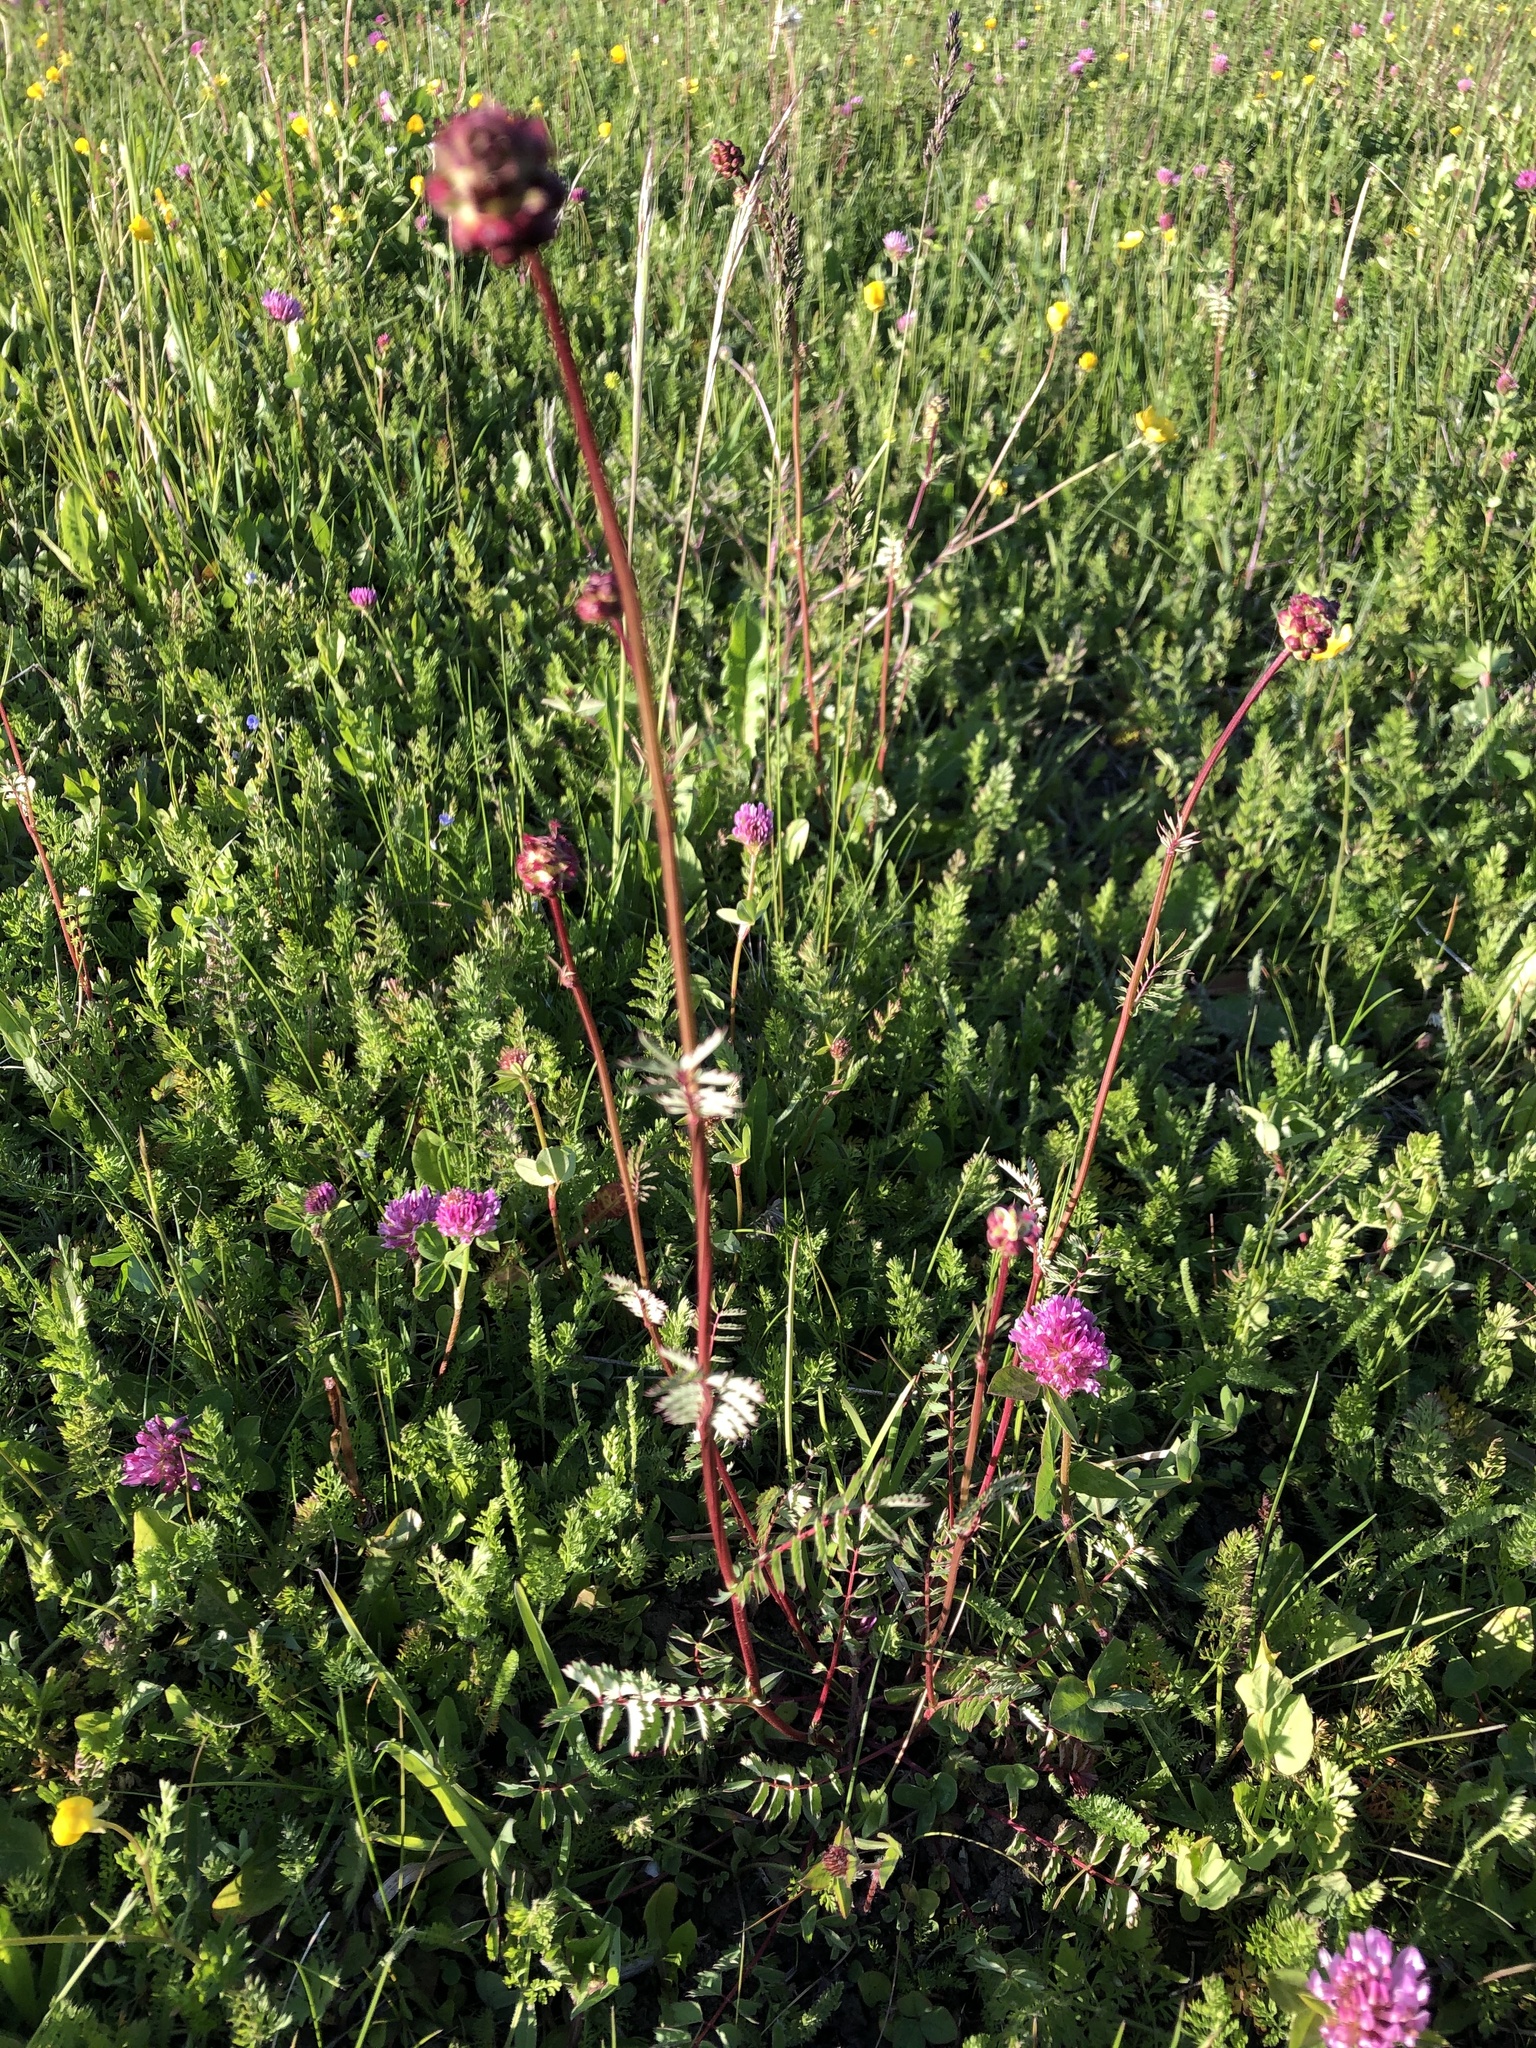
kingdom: Plantae
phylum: Tracheophyta
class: Magnoliopsida
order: Rosales
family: Rosaceae
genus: Poterium
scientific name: Poterium sanguisorba
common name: Salad burnet
